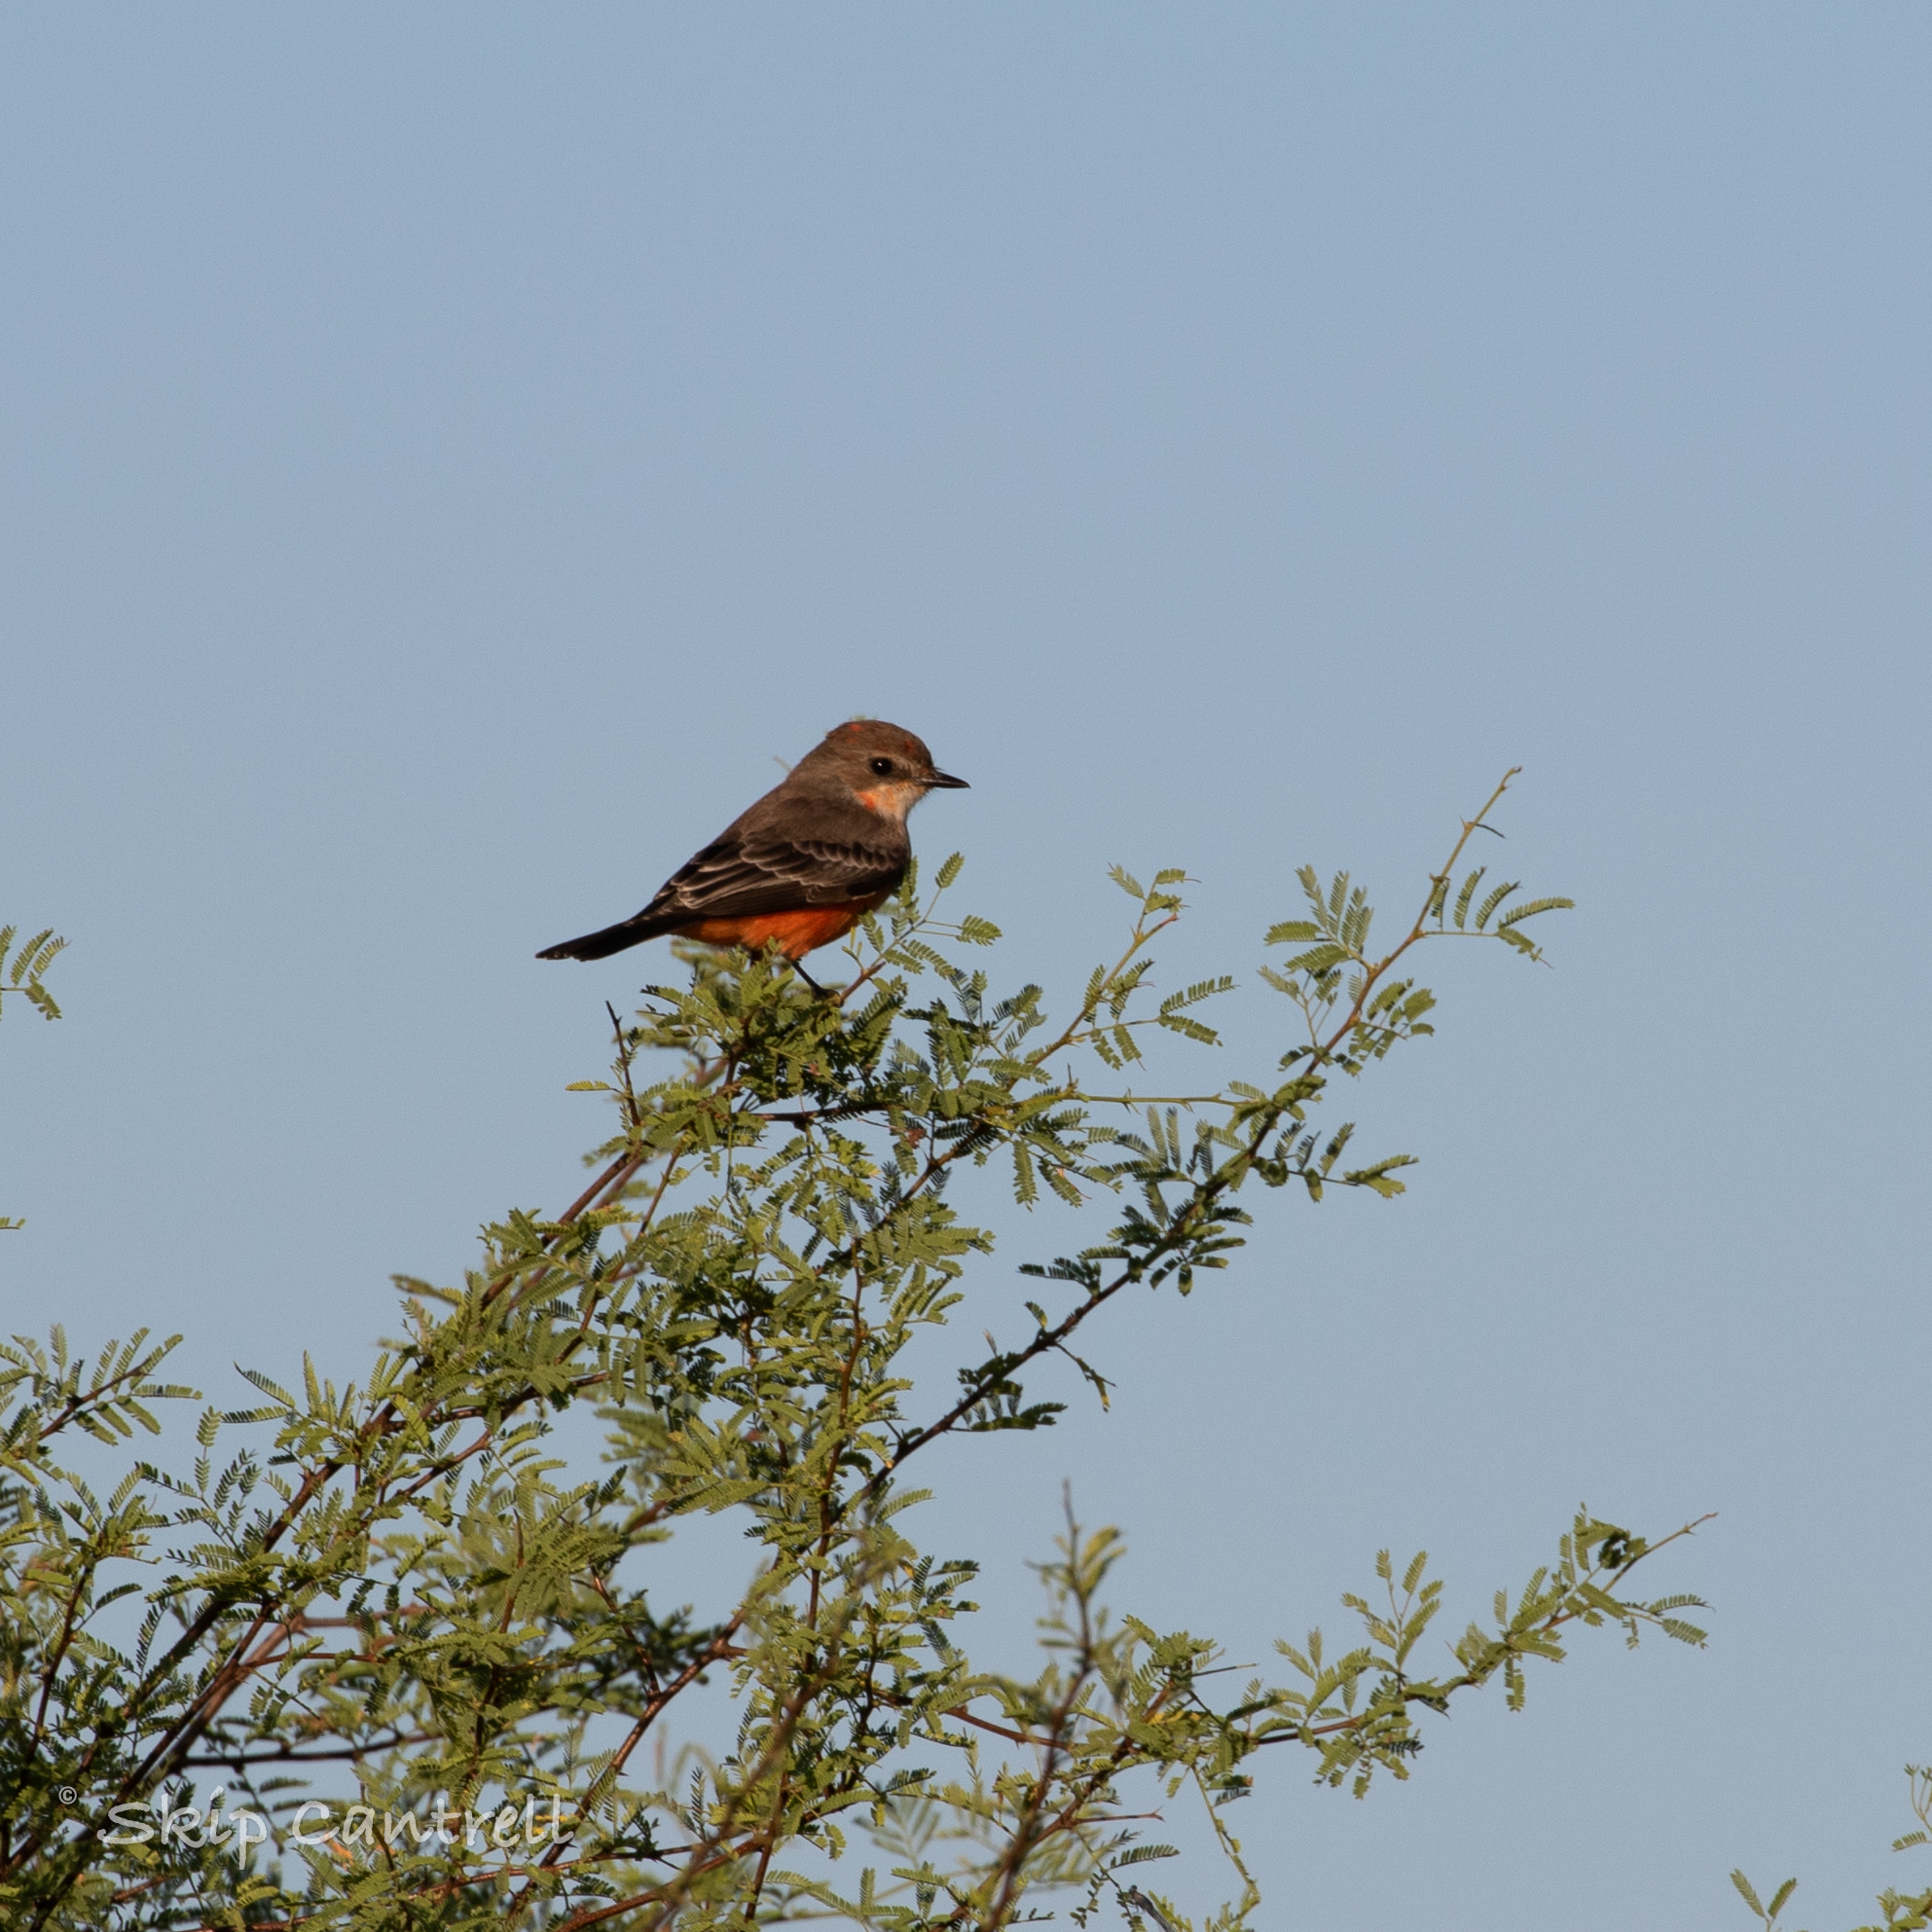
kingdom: Animalia
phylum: Chordata
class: Aves
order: Passeriformes
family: Tyrannidae
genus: Pyrocephalus
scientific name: Pyrocephalus rubinus
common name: Vermilion flycatcher
